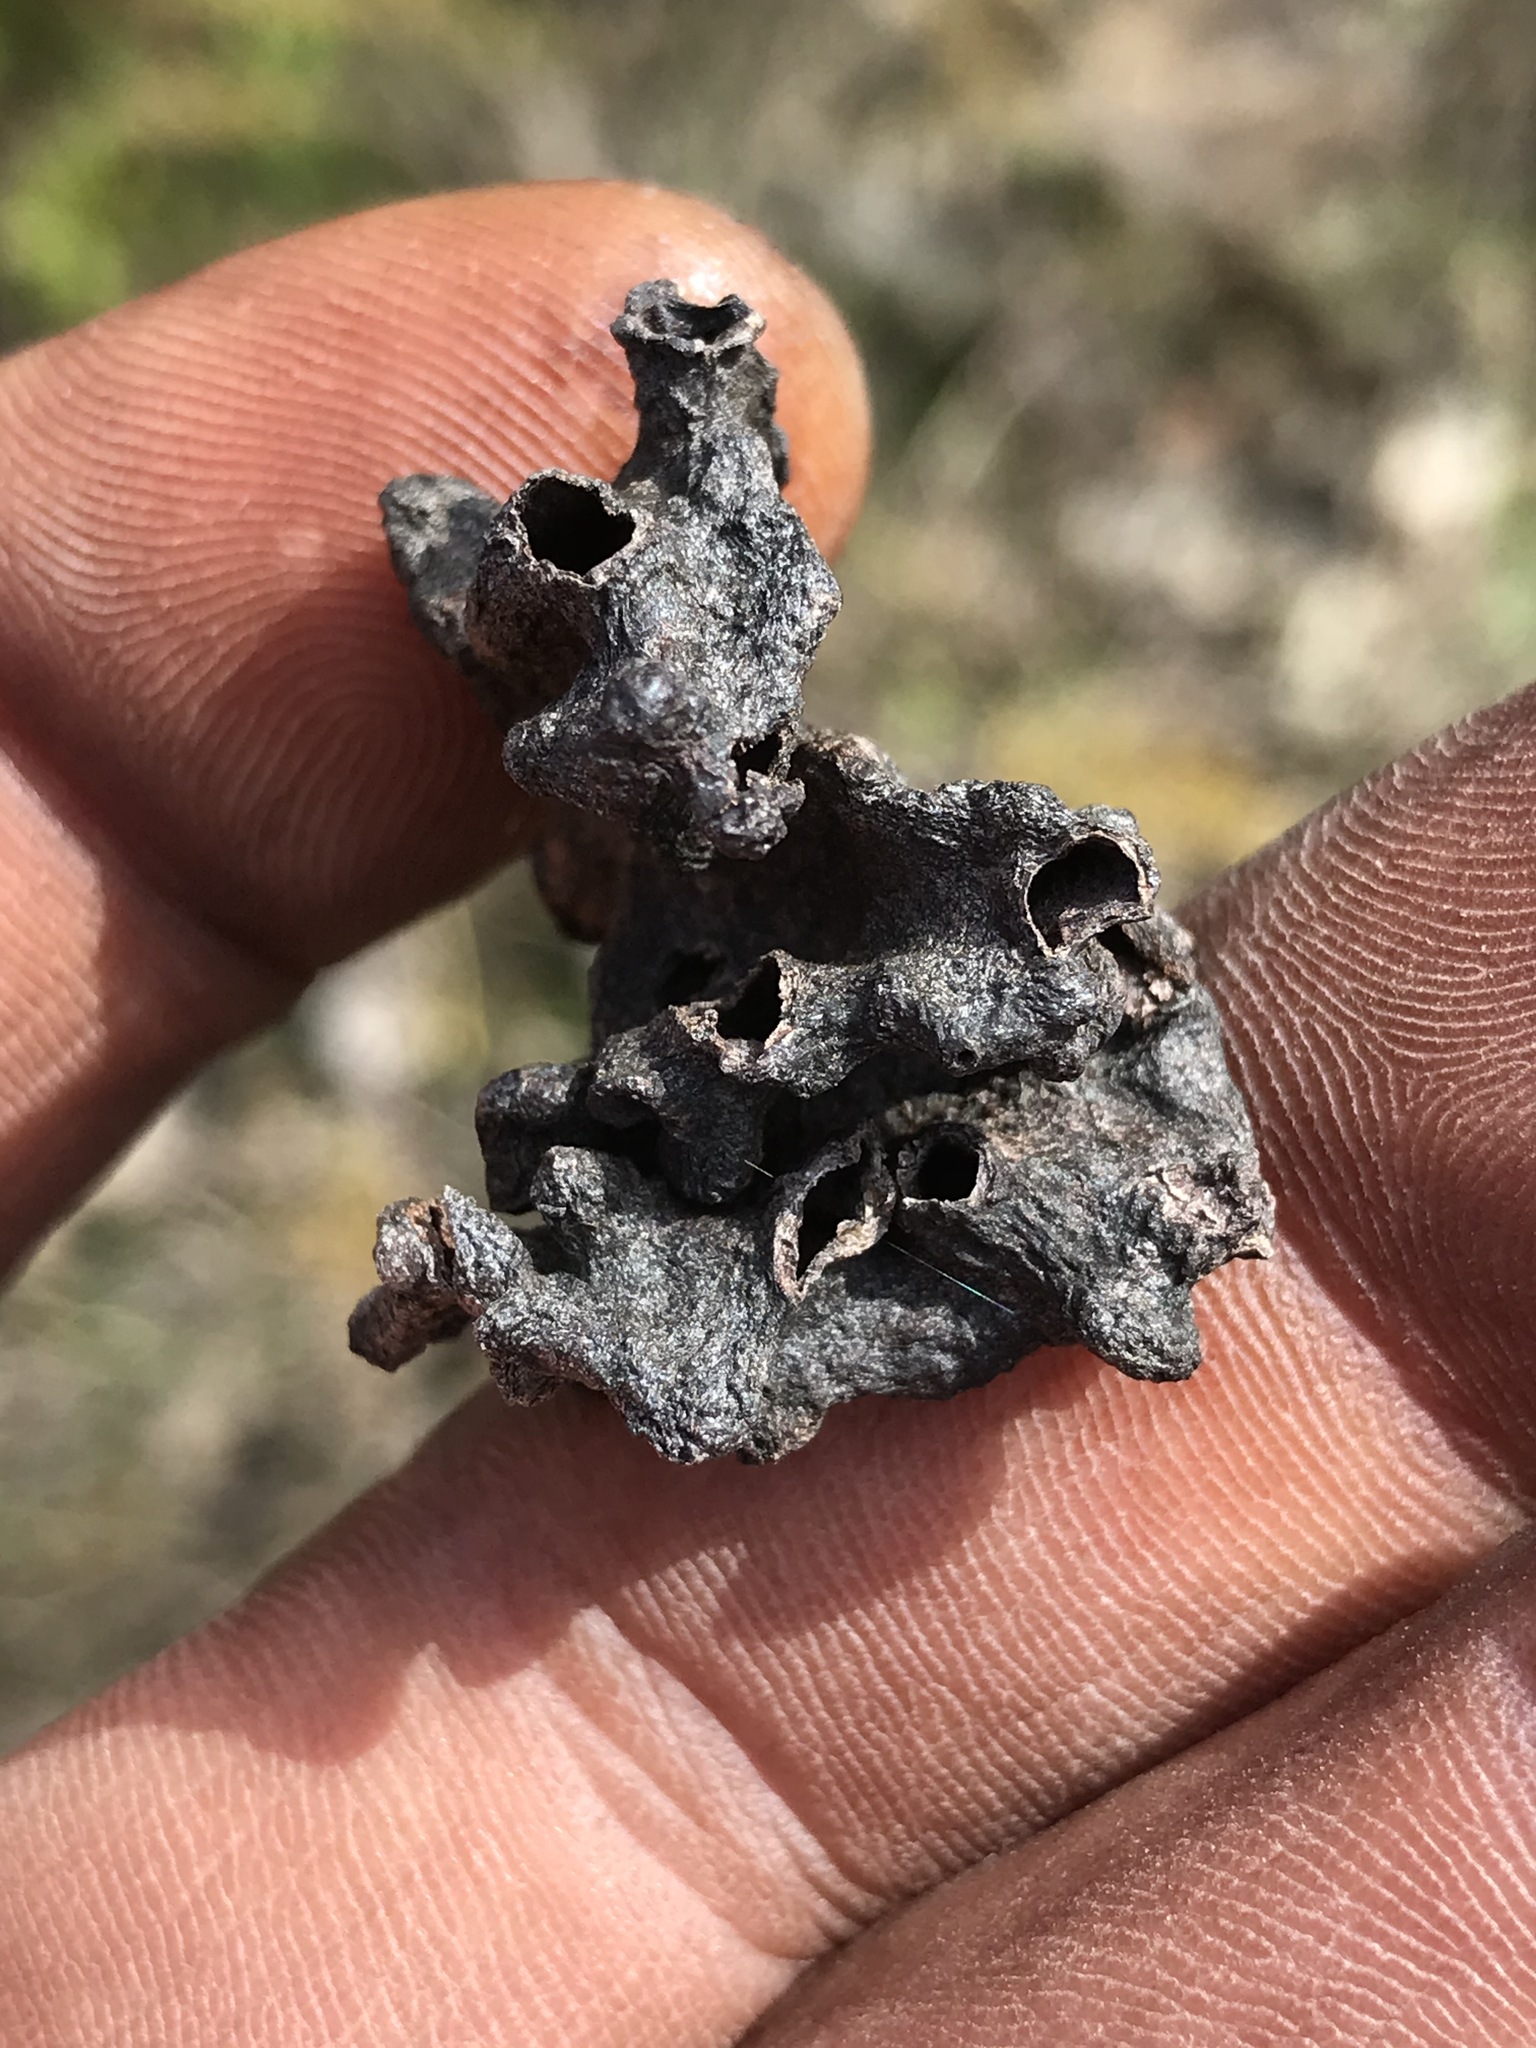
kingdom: Animalia
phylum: Arthropoda
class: Insecta
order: Hemiptera
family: Aphididae
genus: Mordwilkoja
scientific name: Mordwilkoja vagabunda
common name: Poplar vagabond aphid
